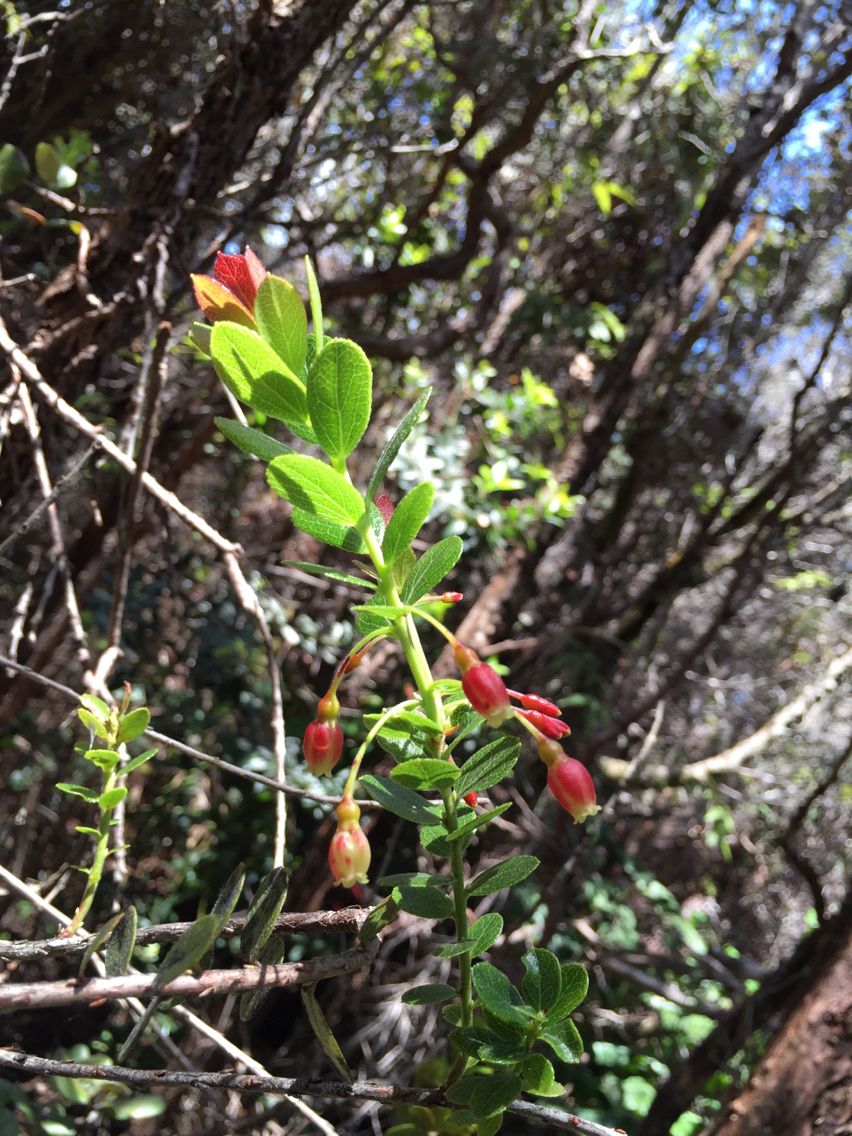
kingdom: Plantae
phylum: Tracheophyta
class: Magnoliopsida
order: Ericales
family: Ericaceae
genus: Vaccinium
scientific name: Vaccinium reticulatum
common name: Ohelo
